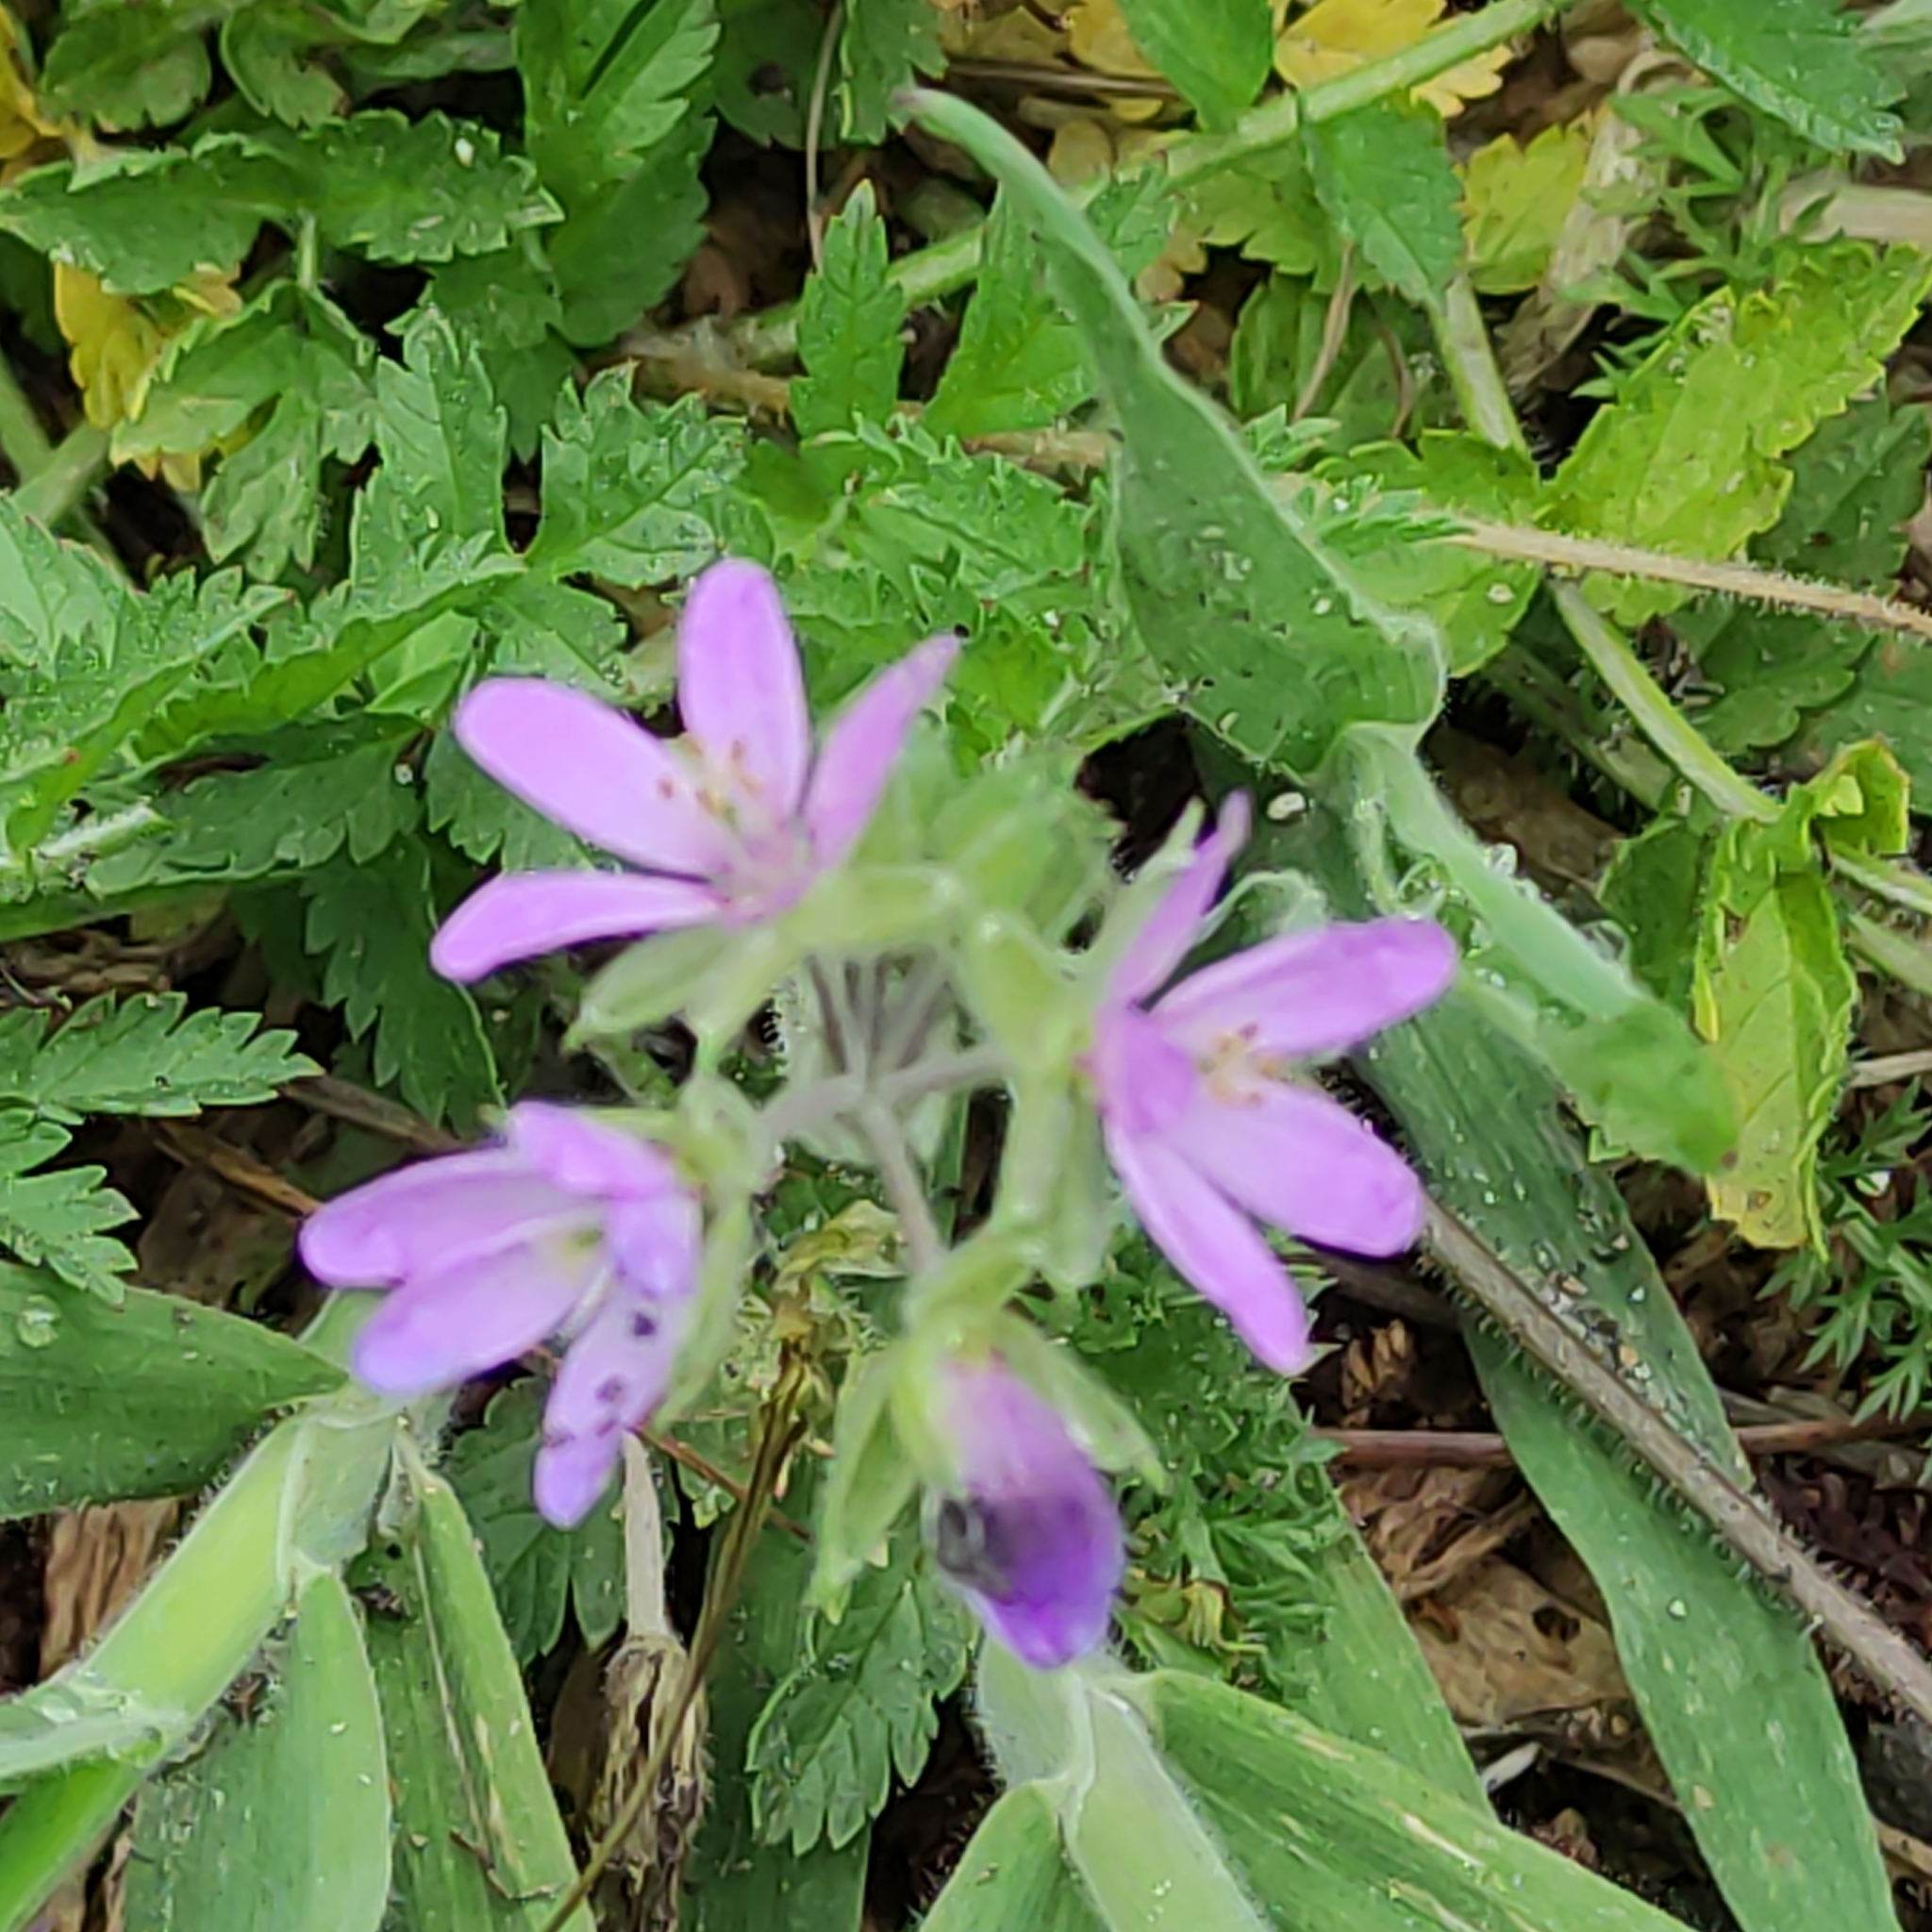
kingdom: Plantae
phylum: Tracheophyta
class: Magnoliopsida
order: Geraniales
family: Geraniaceae
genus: Erodium
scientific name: Erodium moschatum
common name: Musk stork's-bill
